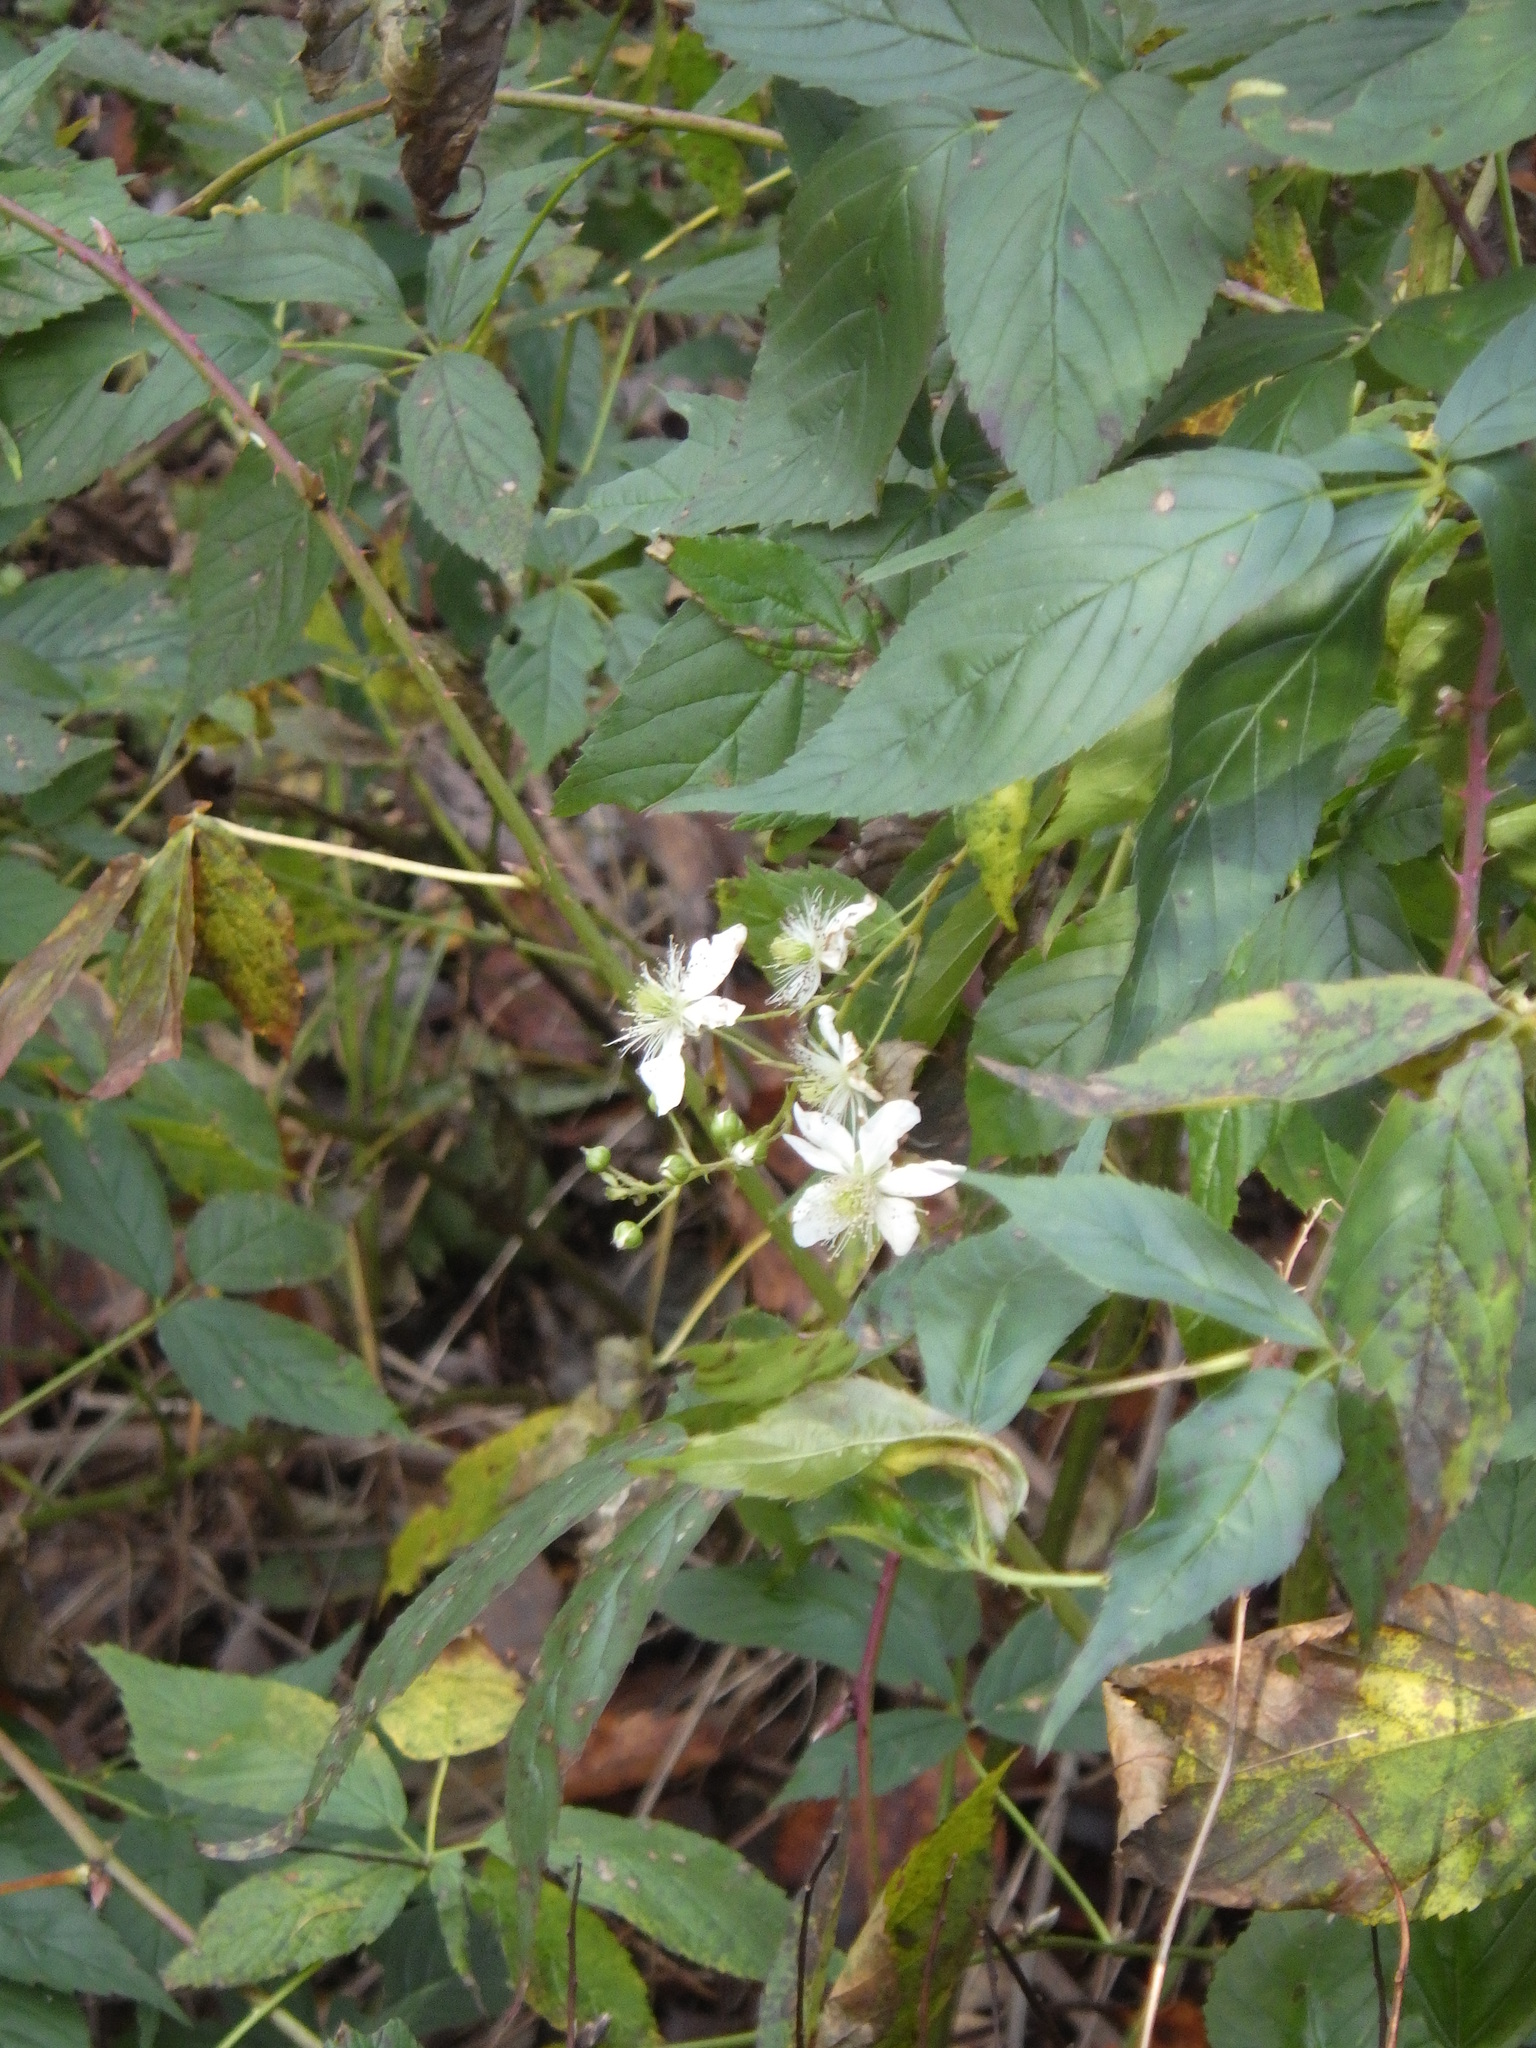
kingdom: Plantae
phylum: Tracheophyta
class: Magnoliopsida
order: Rosales
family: Rosaceae
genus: Rubus
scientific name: Rubus allegheniensis
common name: Allegheny blackberry
